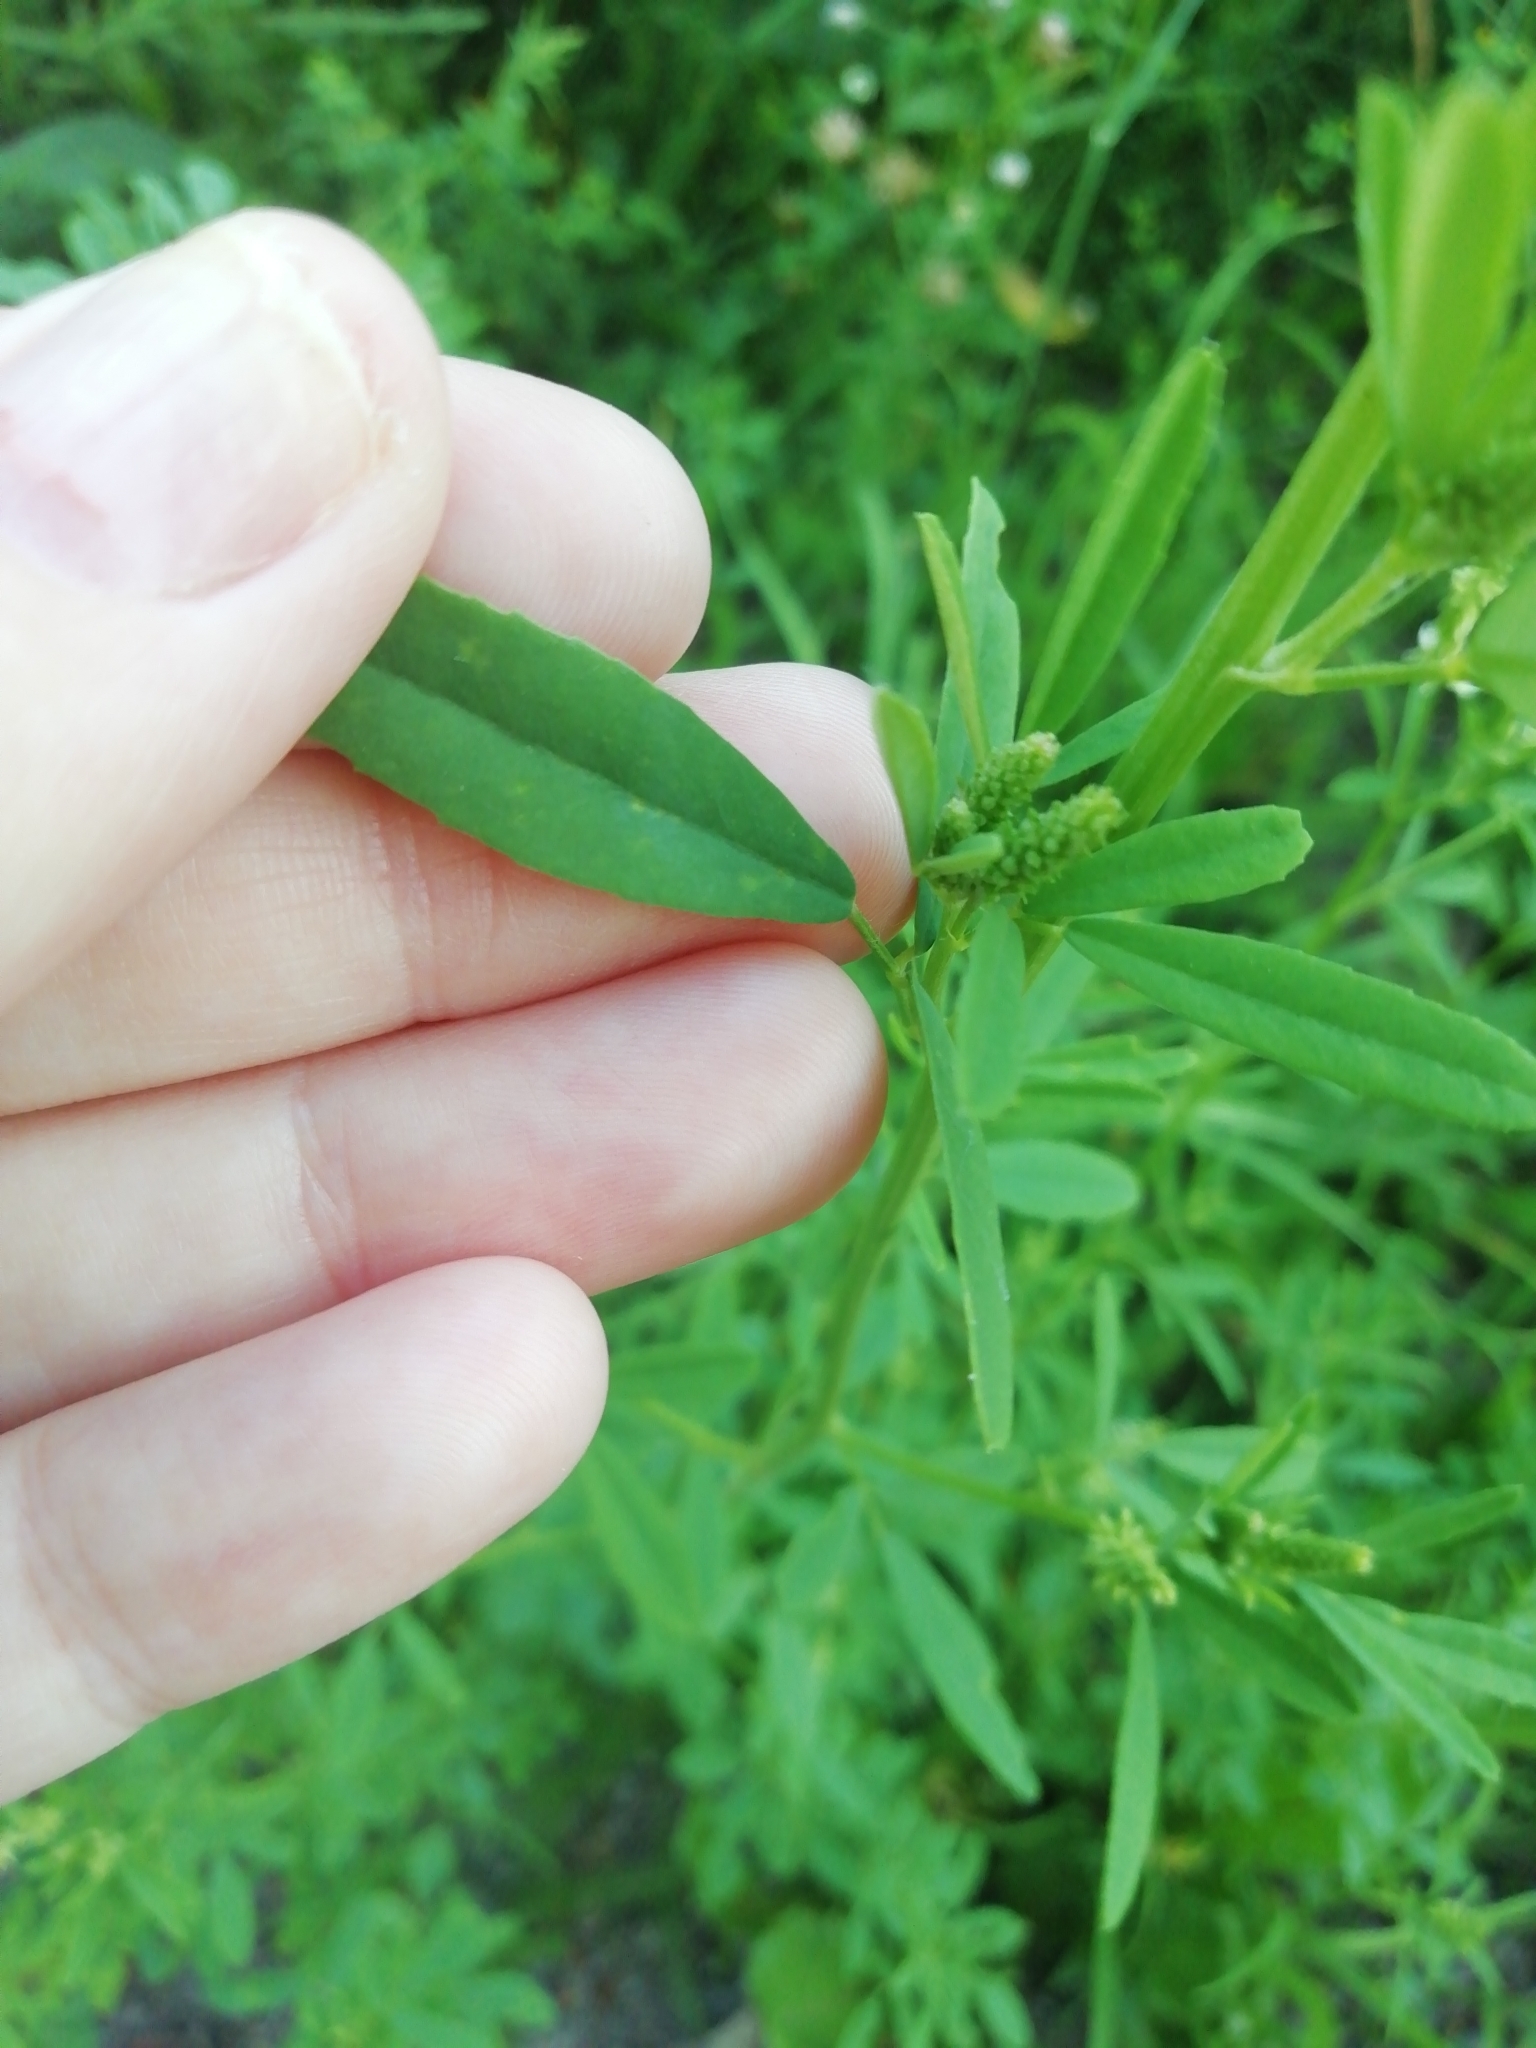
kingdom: Plantae
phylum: Tracheophyta
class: Magnoliopsida
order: Fabales
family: Fabaceae
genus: Melilotus
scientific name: Melilotus albus
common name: White melilot
